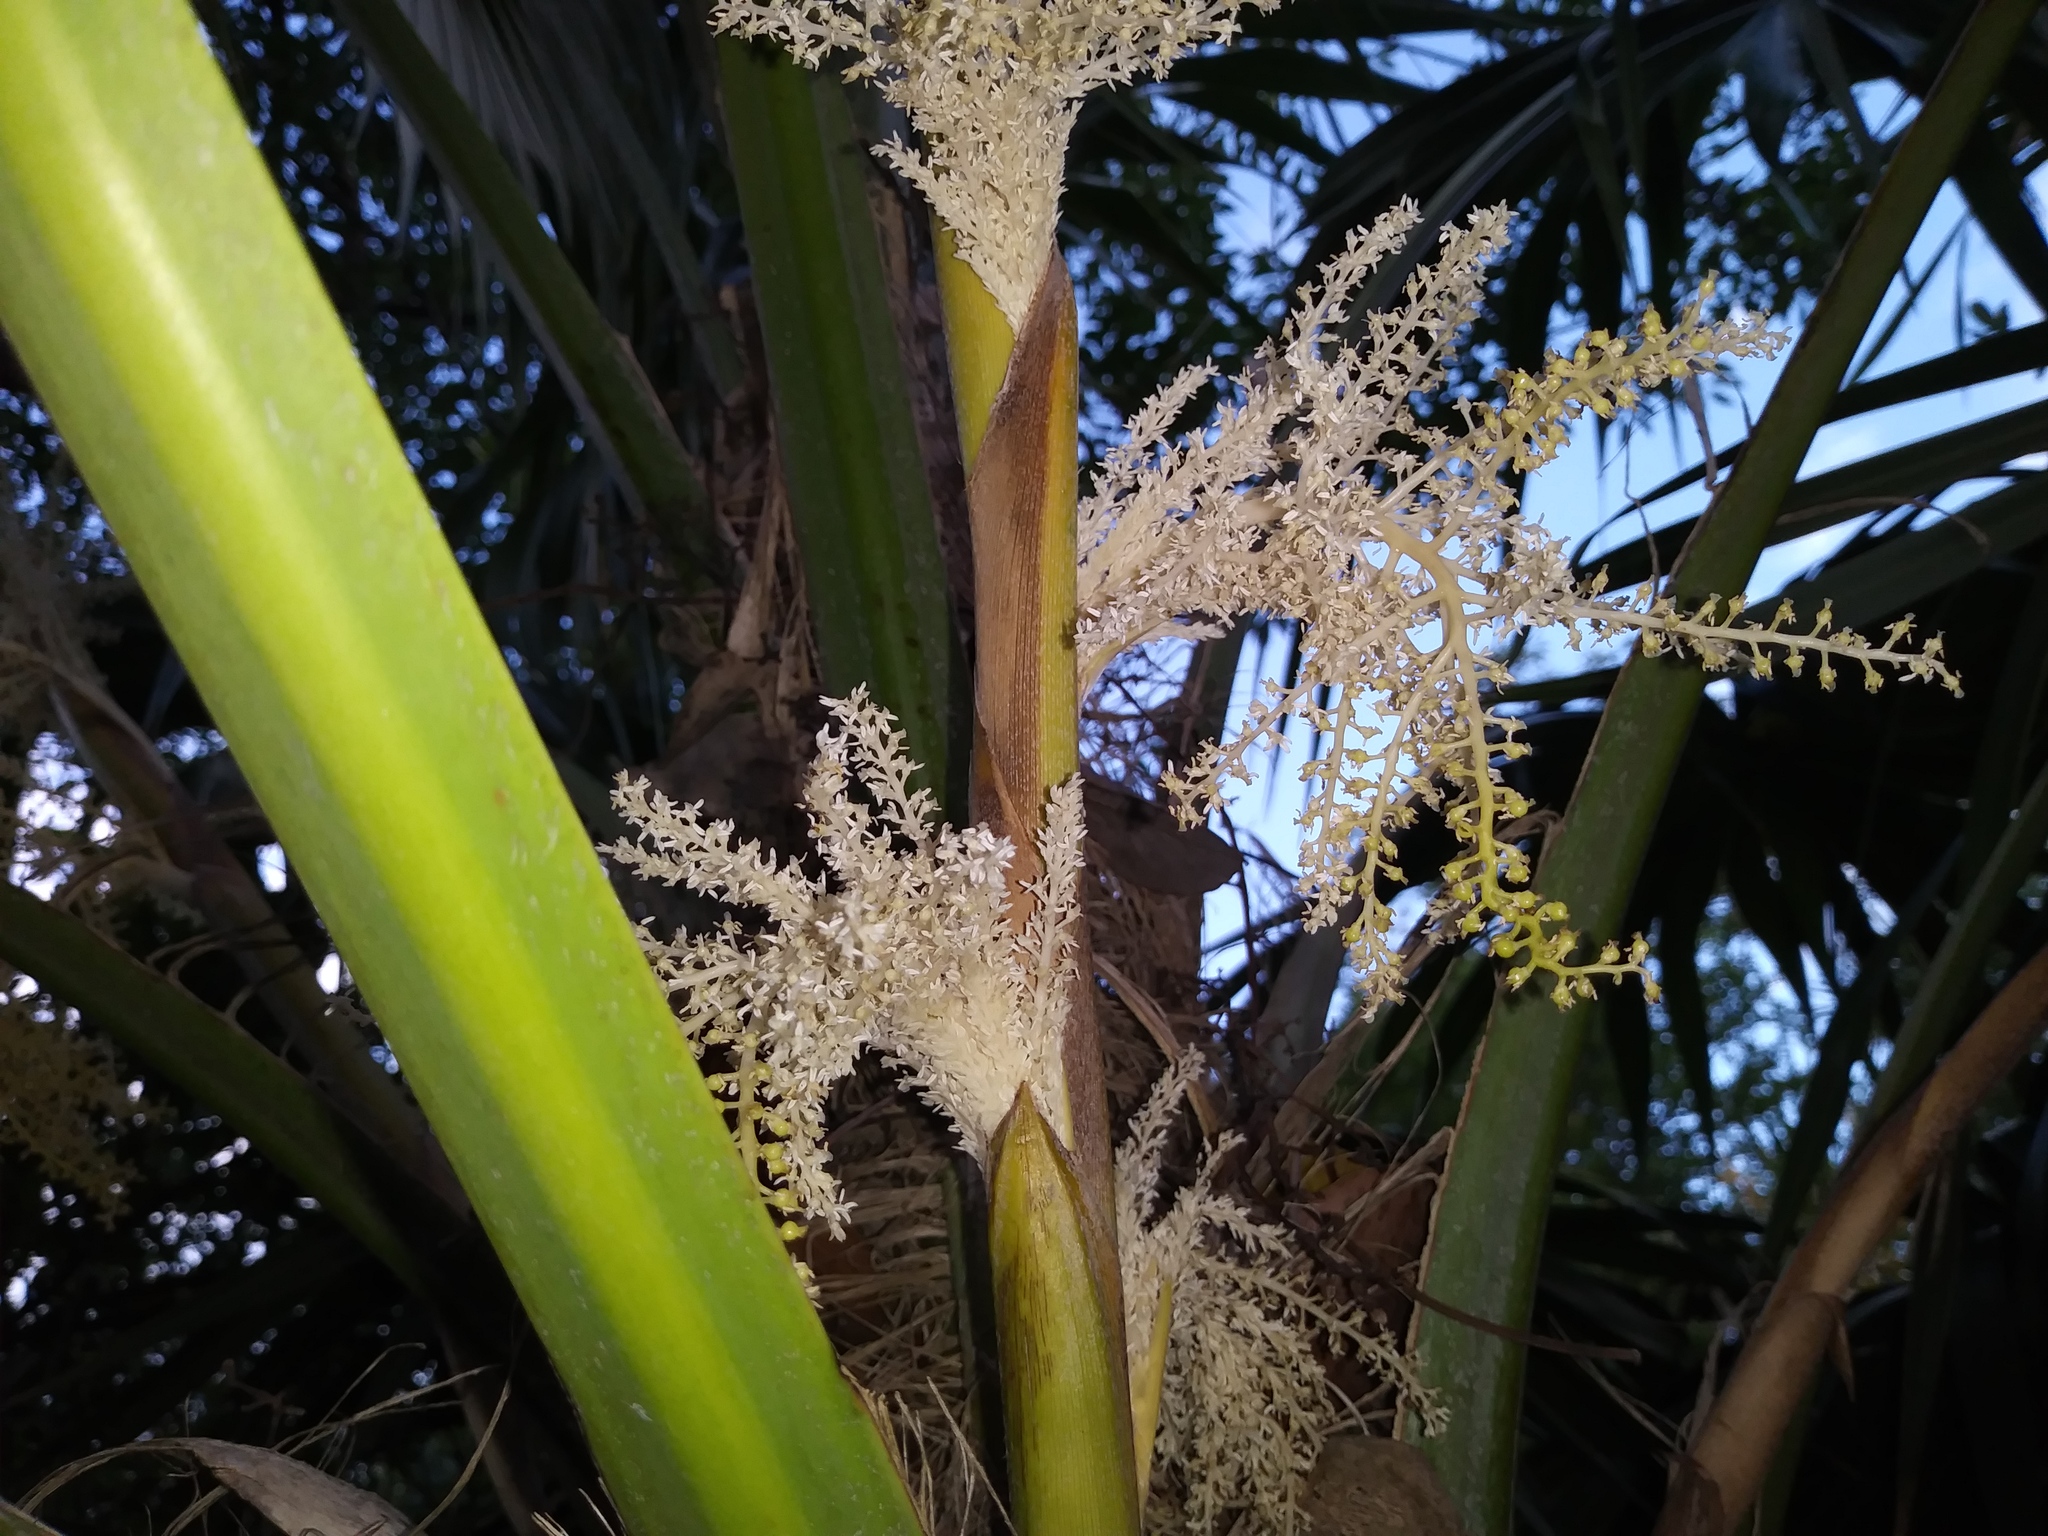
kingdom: Plantae
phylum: Tracheophyta
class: Liliopsida
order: Arecales
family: Arecaceae
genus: Thrinax
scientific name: Thrinax radiata
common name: Florida thatch
